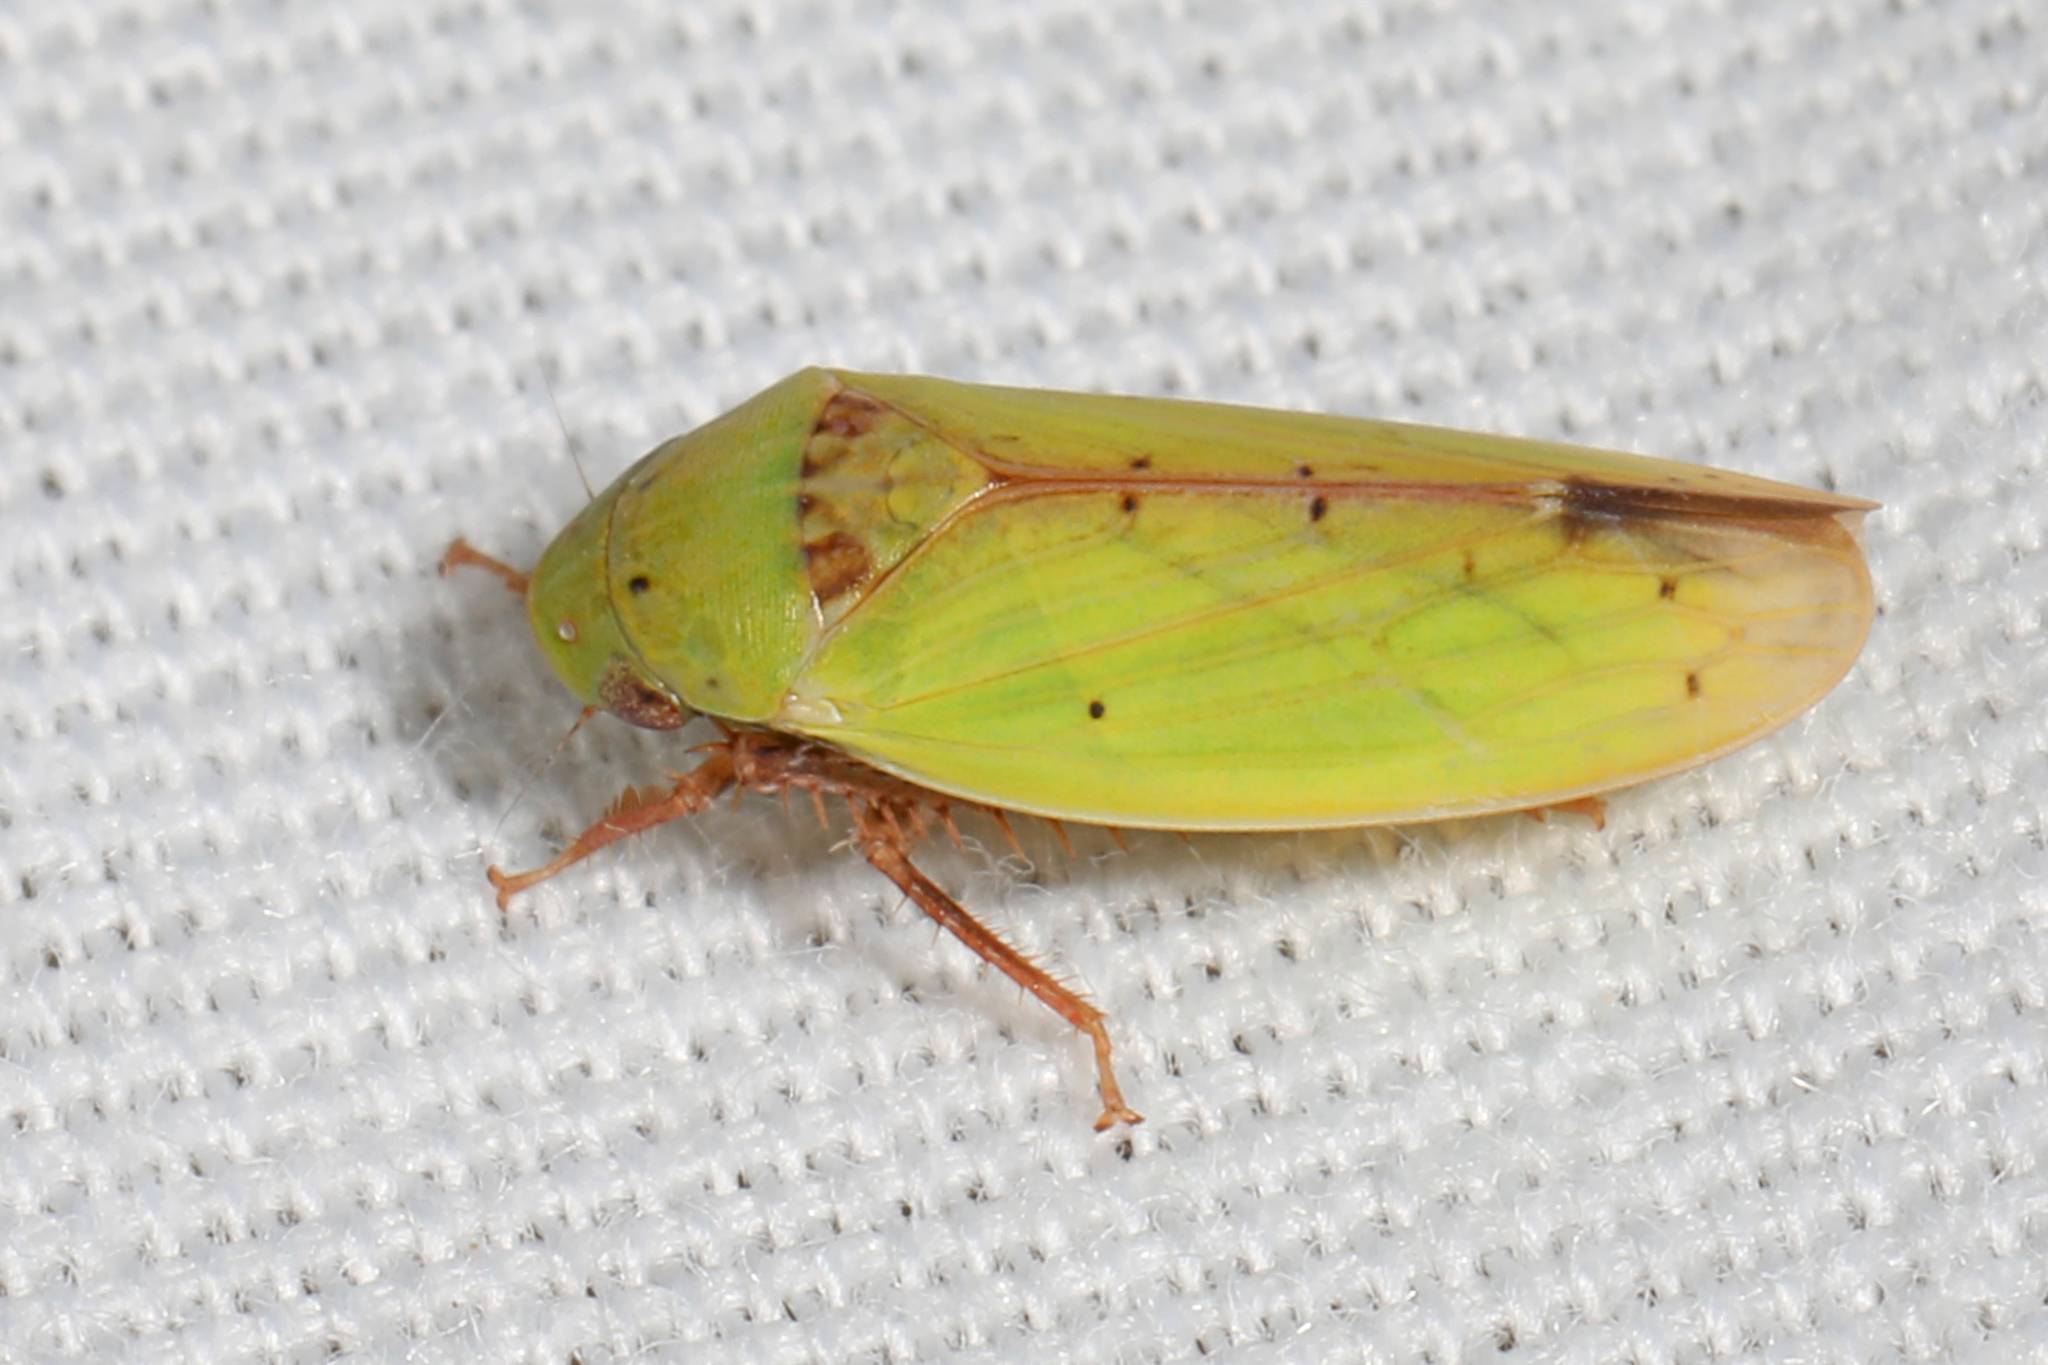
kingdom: Animalia
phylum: Arthropoda
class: Insecta
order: Hemiptera
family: Cicadellidae
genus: Ponana
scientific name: Ponana
